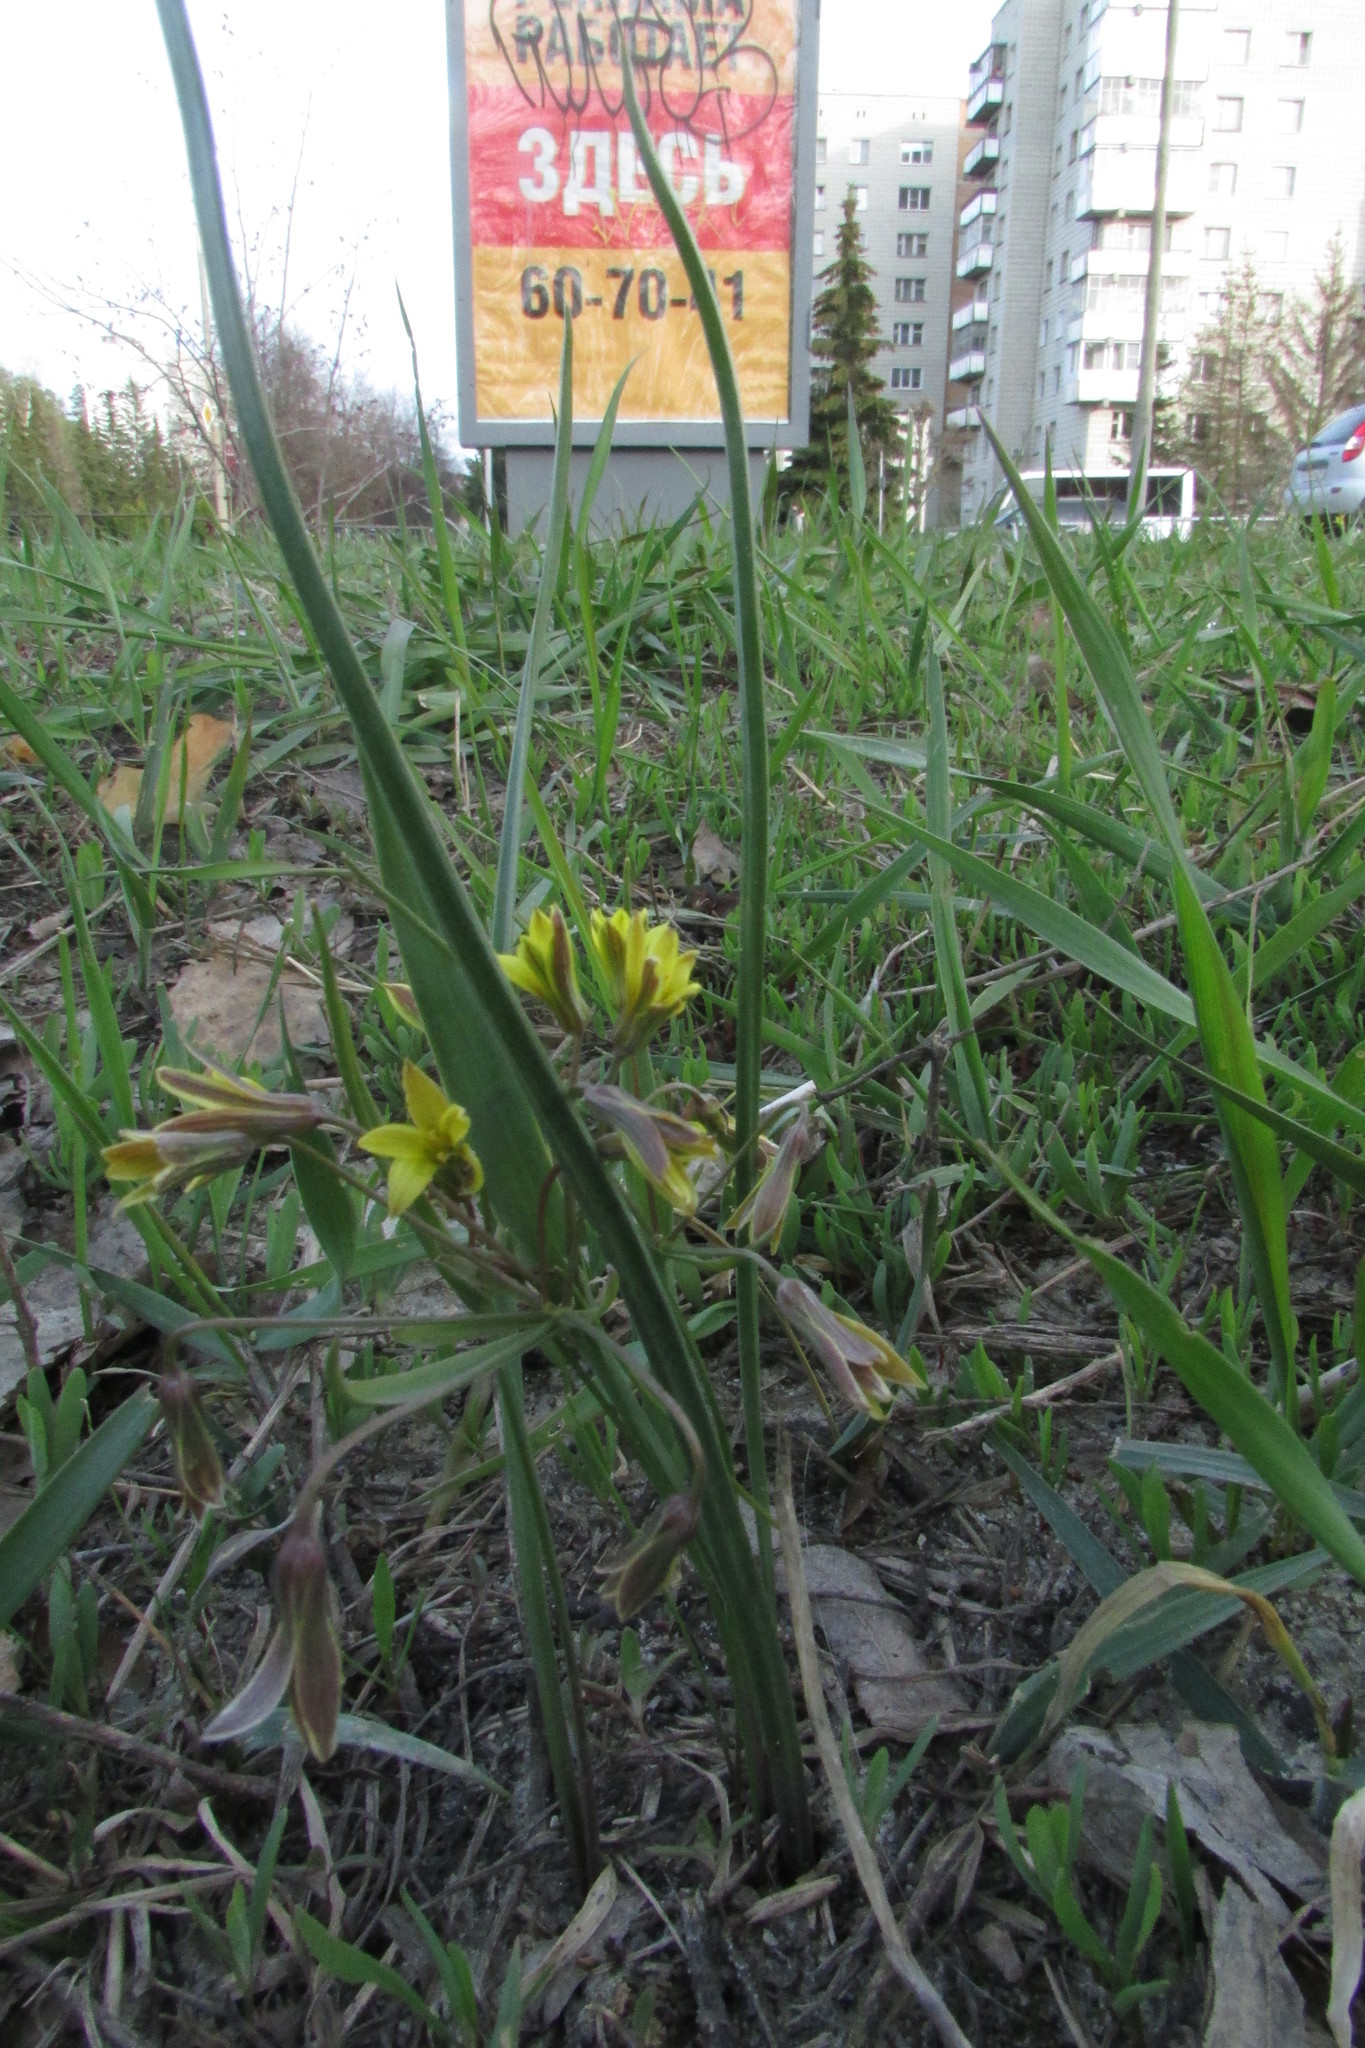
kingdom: Plantae
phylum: Tracheophyta
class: Liliopsida
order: Liliales
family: Liliaceae
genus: Gagea
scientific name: Gagea fragifera
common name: Lily
